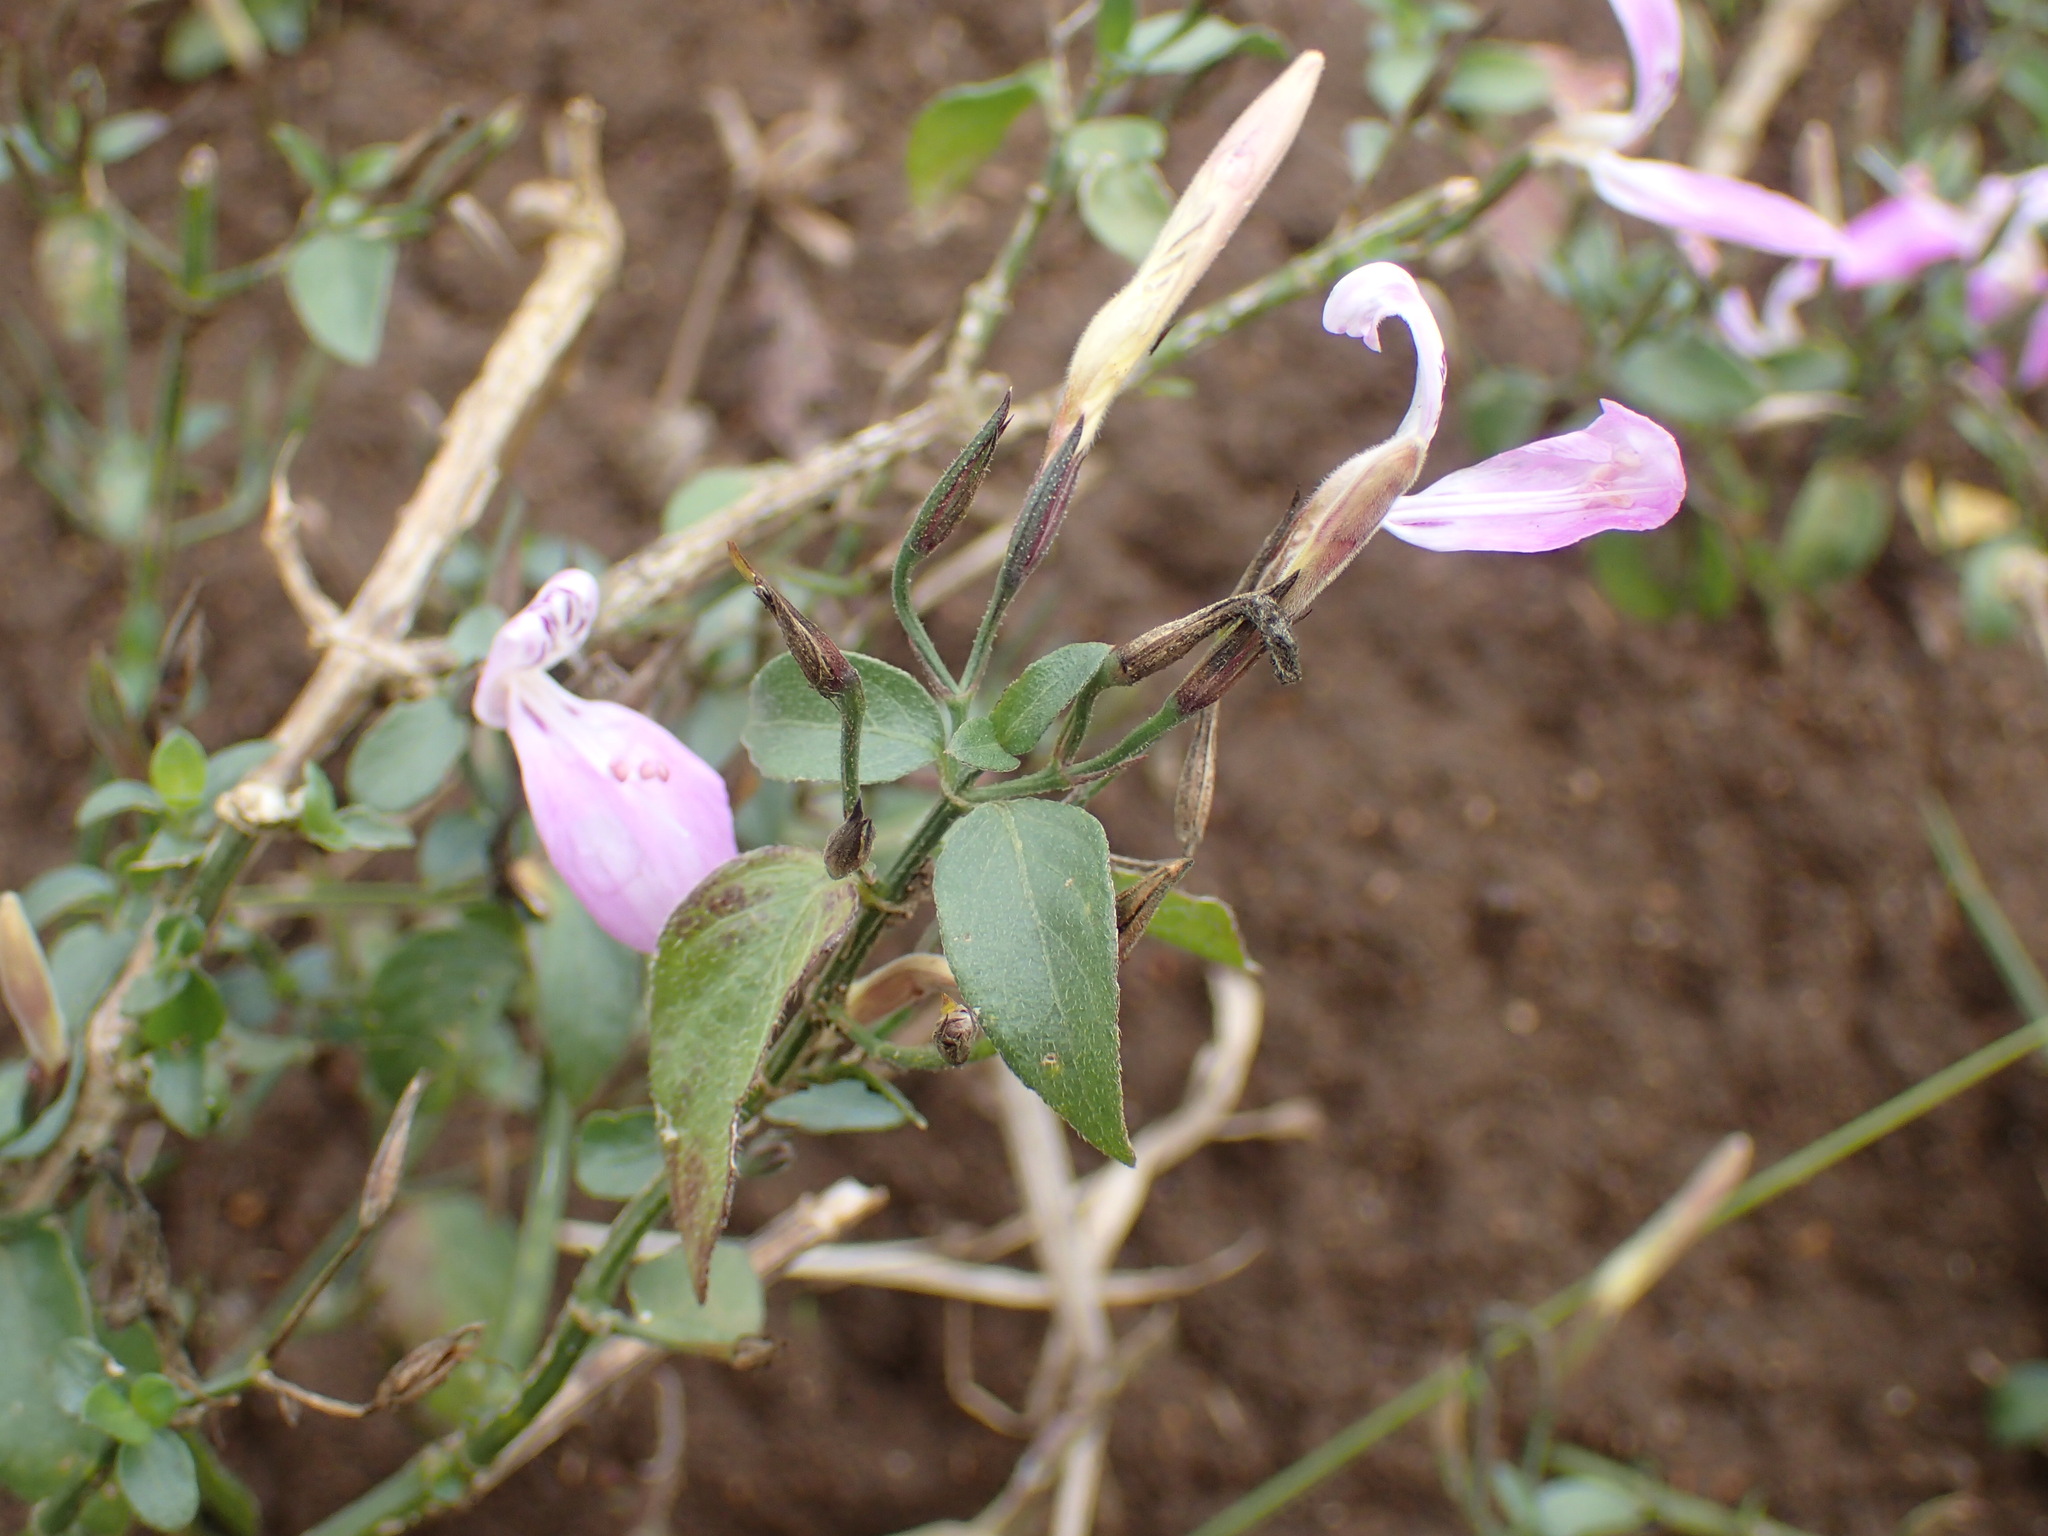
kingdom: Plantae
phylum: Tracheophyta
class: Magnoliopsida
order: Lamiales
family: Acanthaceae
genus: Dicliptera
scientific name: Dicliptera cernua
